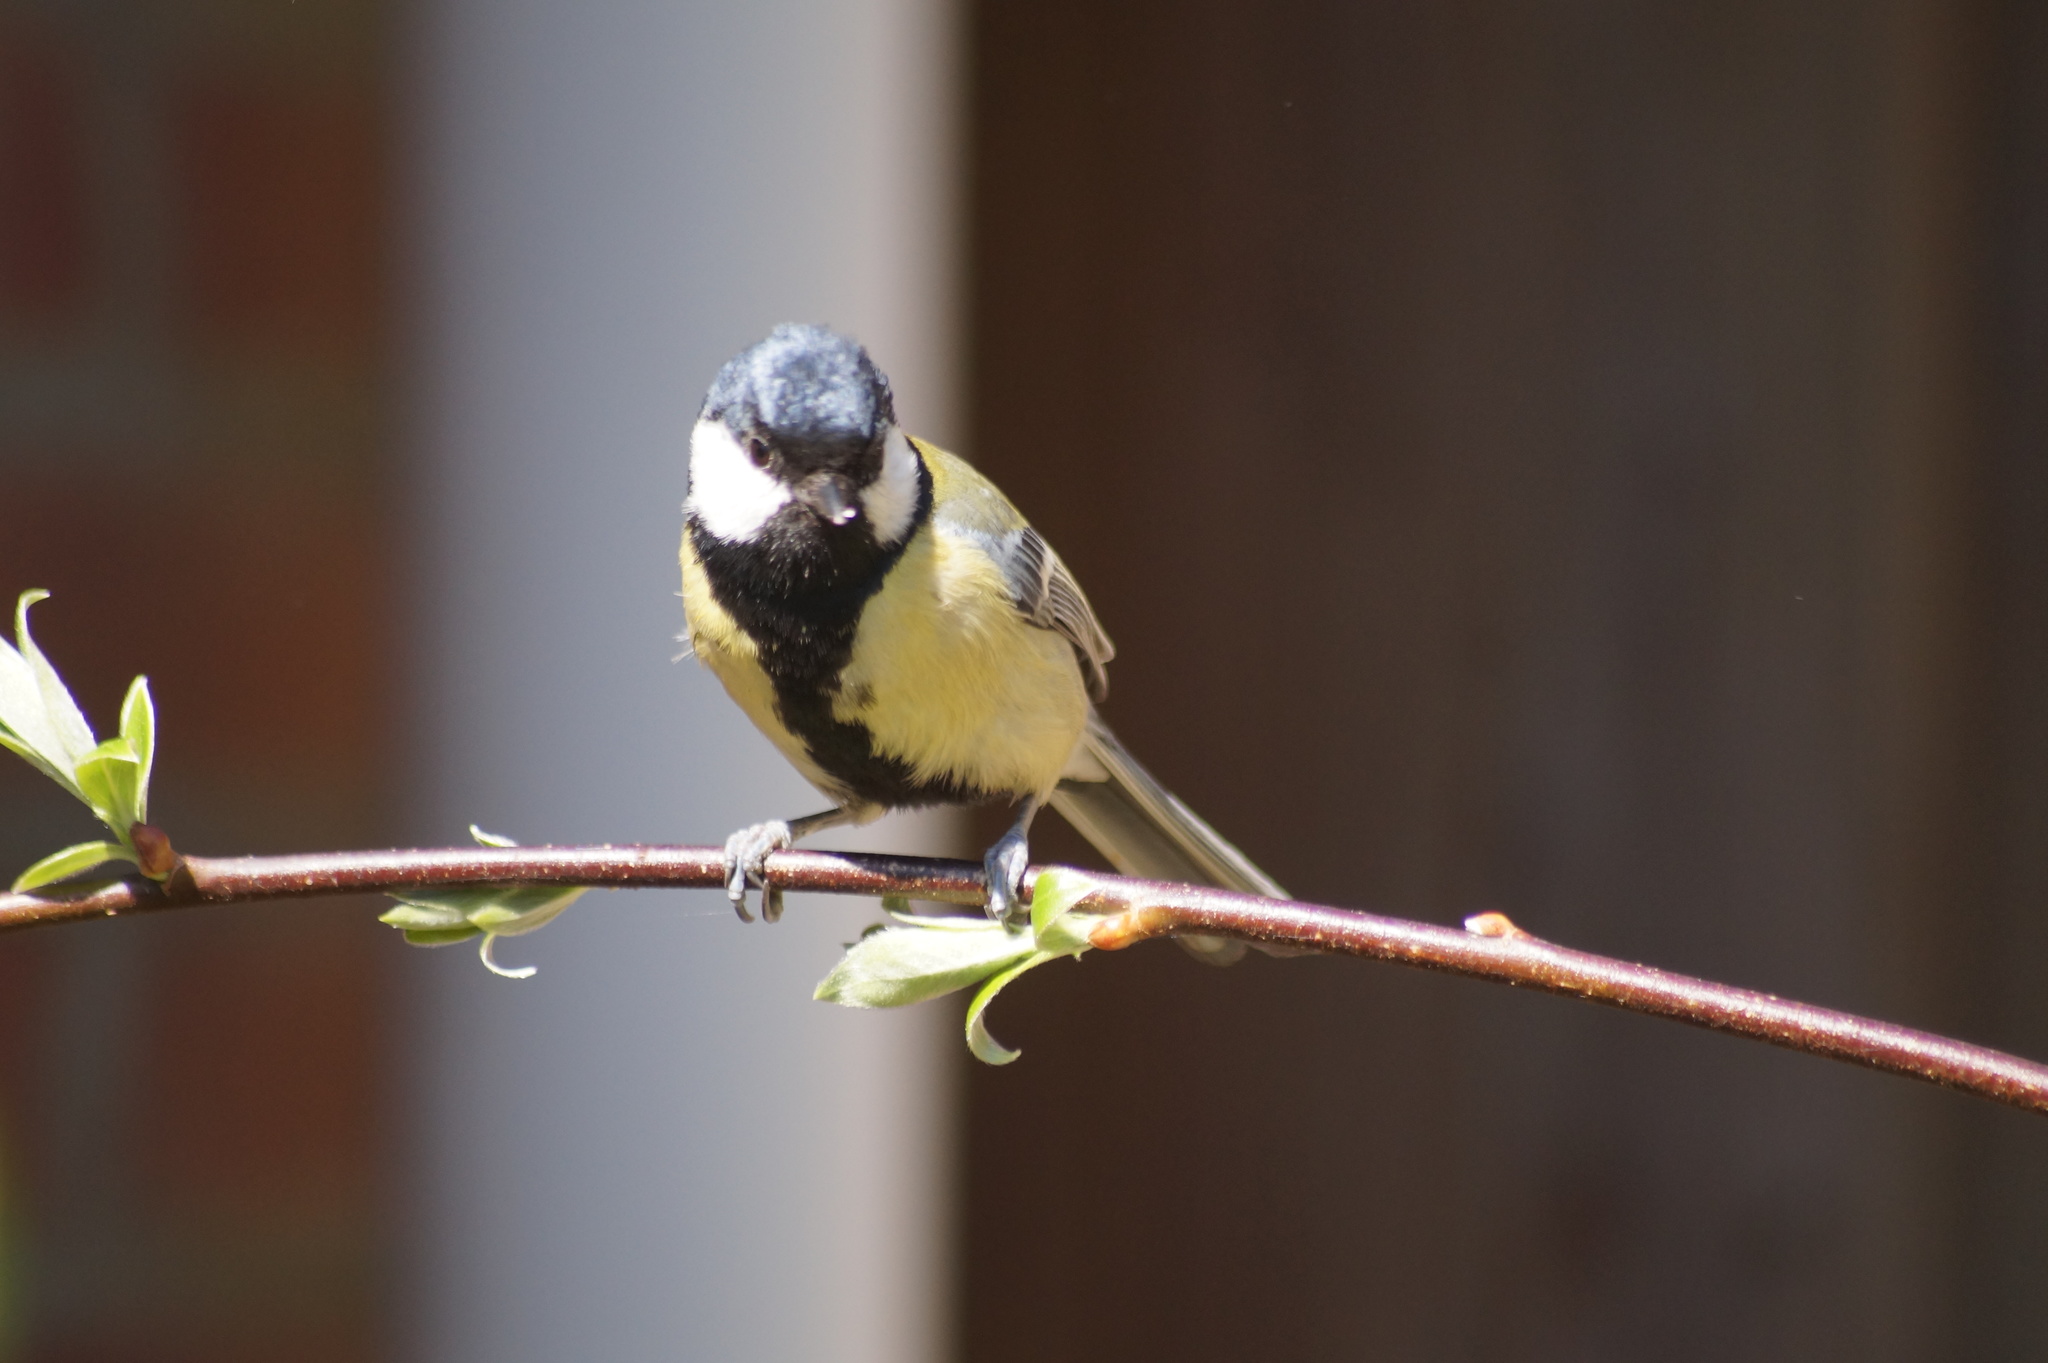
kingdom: Animalia
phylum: Chordata
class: Aves
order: Passeriformes
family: Paridae
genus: Parus
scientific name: Parus major
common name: Great tit
